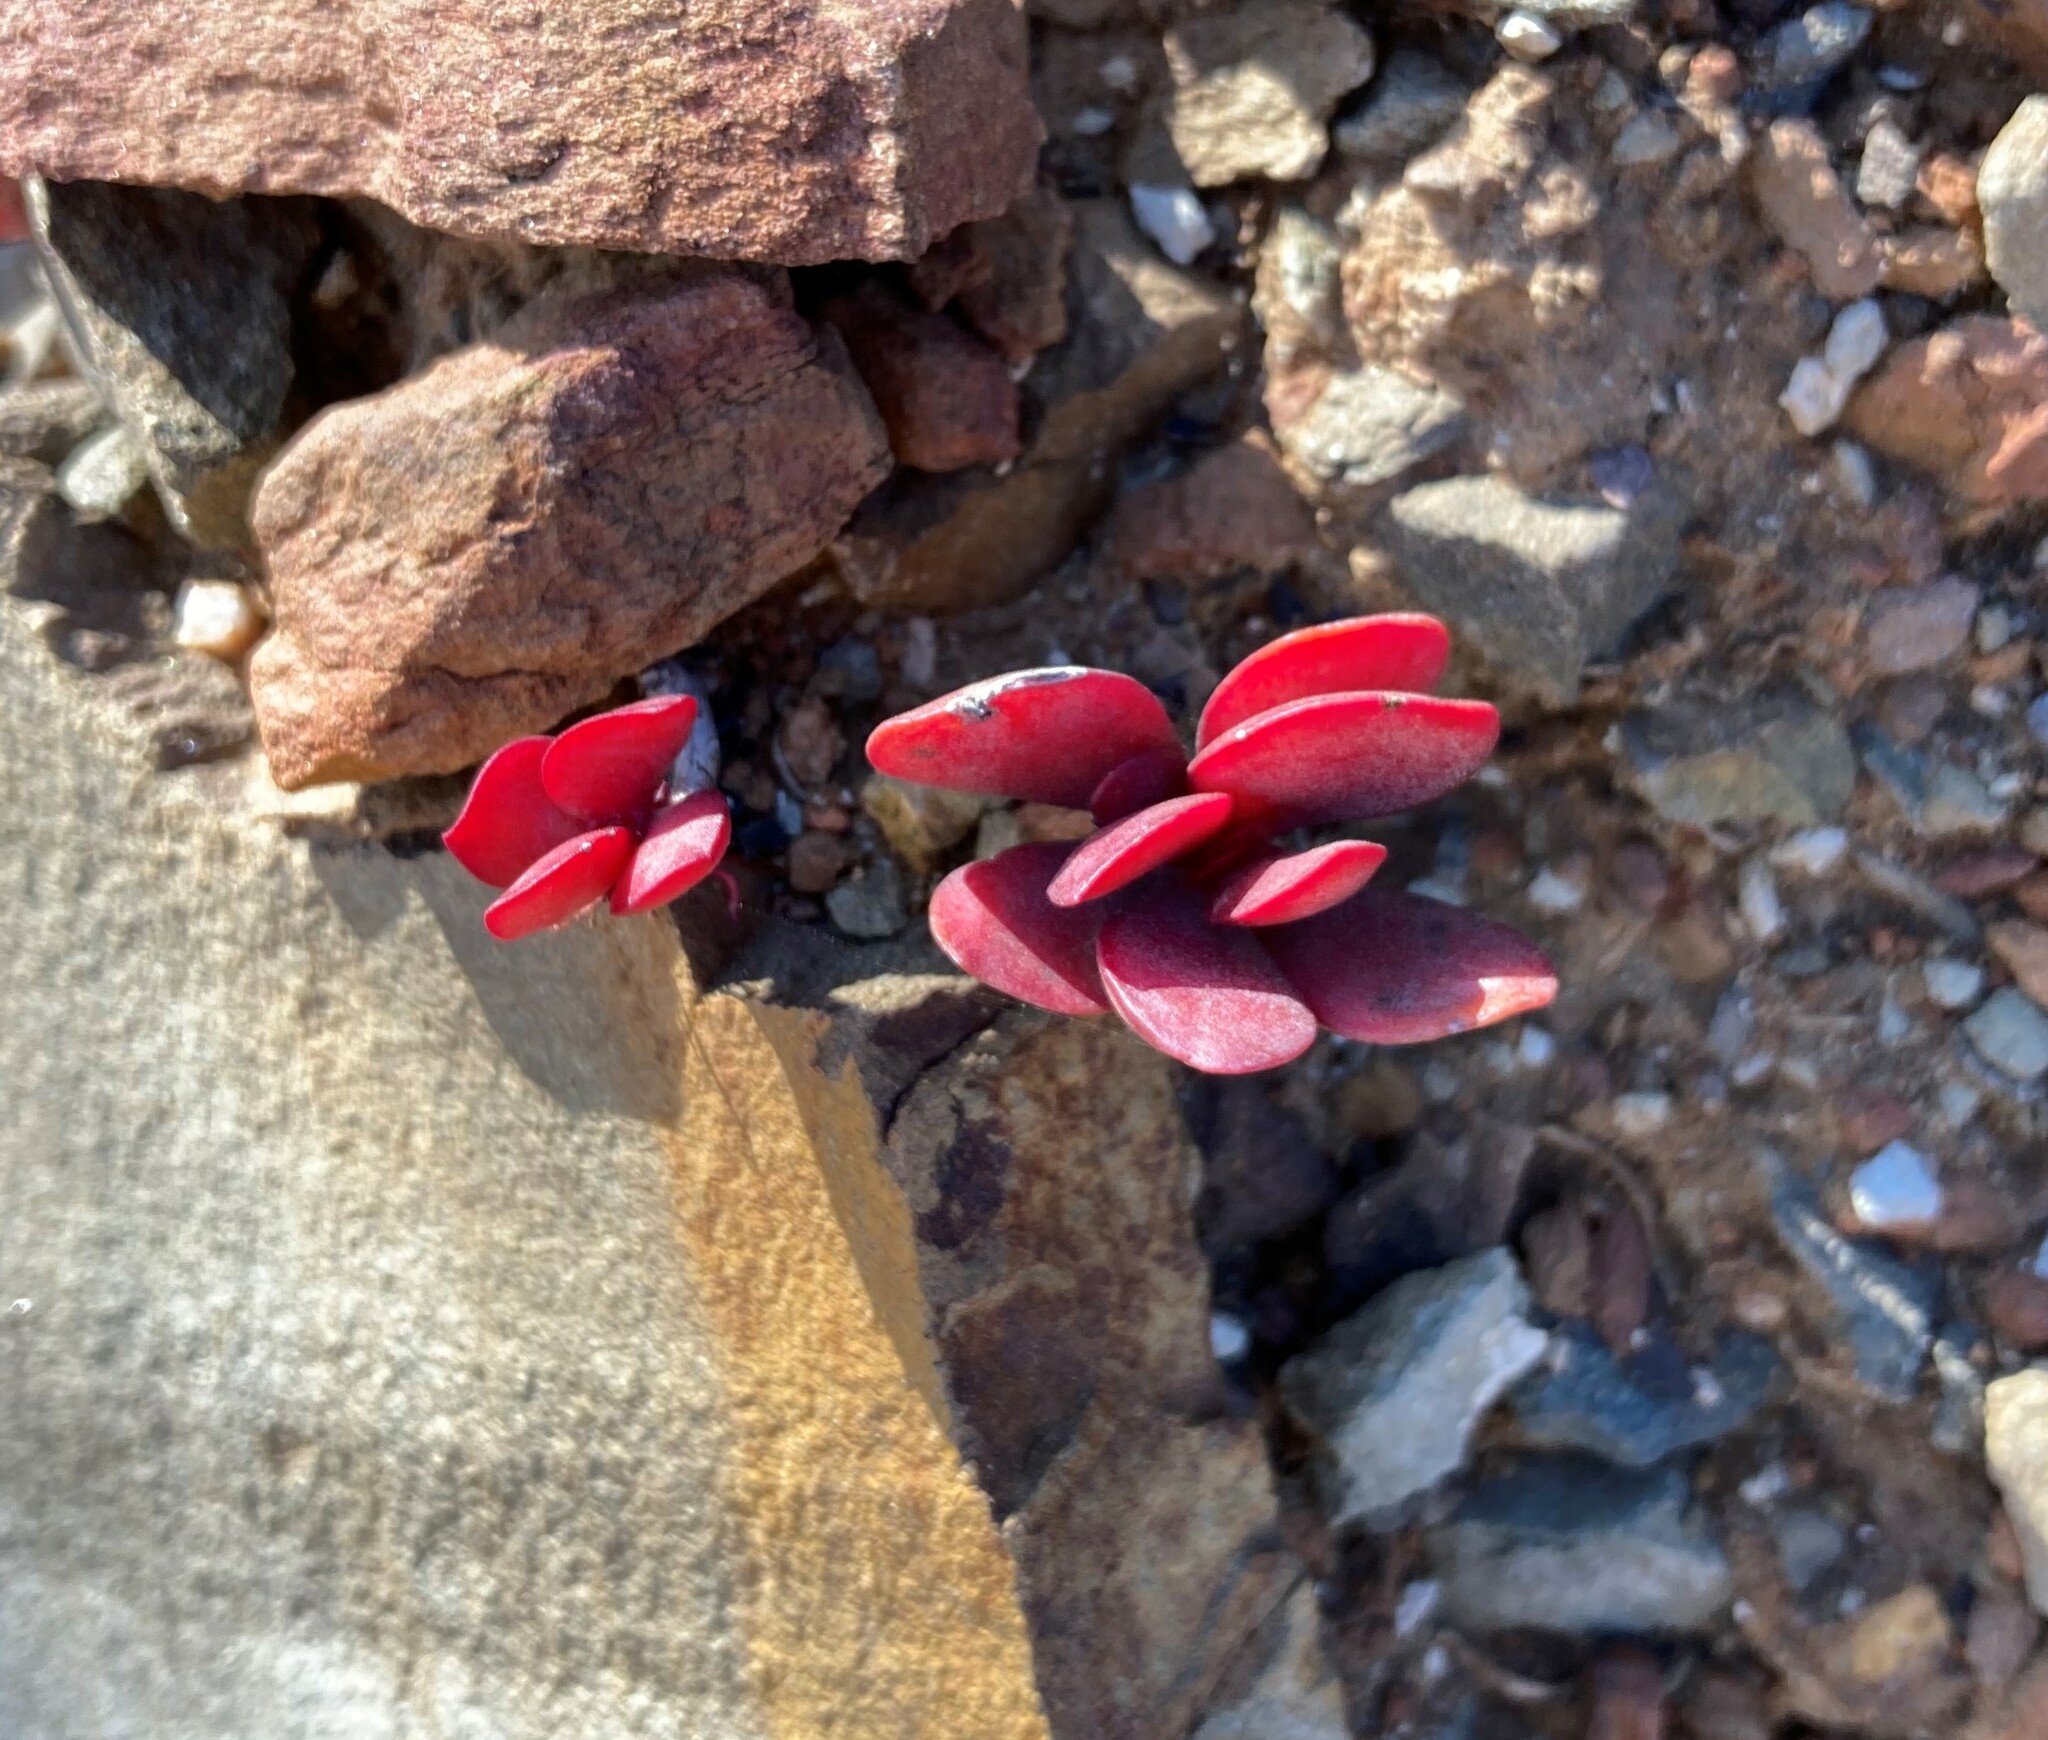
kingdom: Plantae
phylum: Tracheophyta
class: Magnoliopsida
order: Saxifragales
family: Crassulaceae
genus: Crassula
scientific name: Crassula atropurpurea
